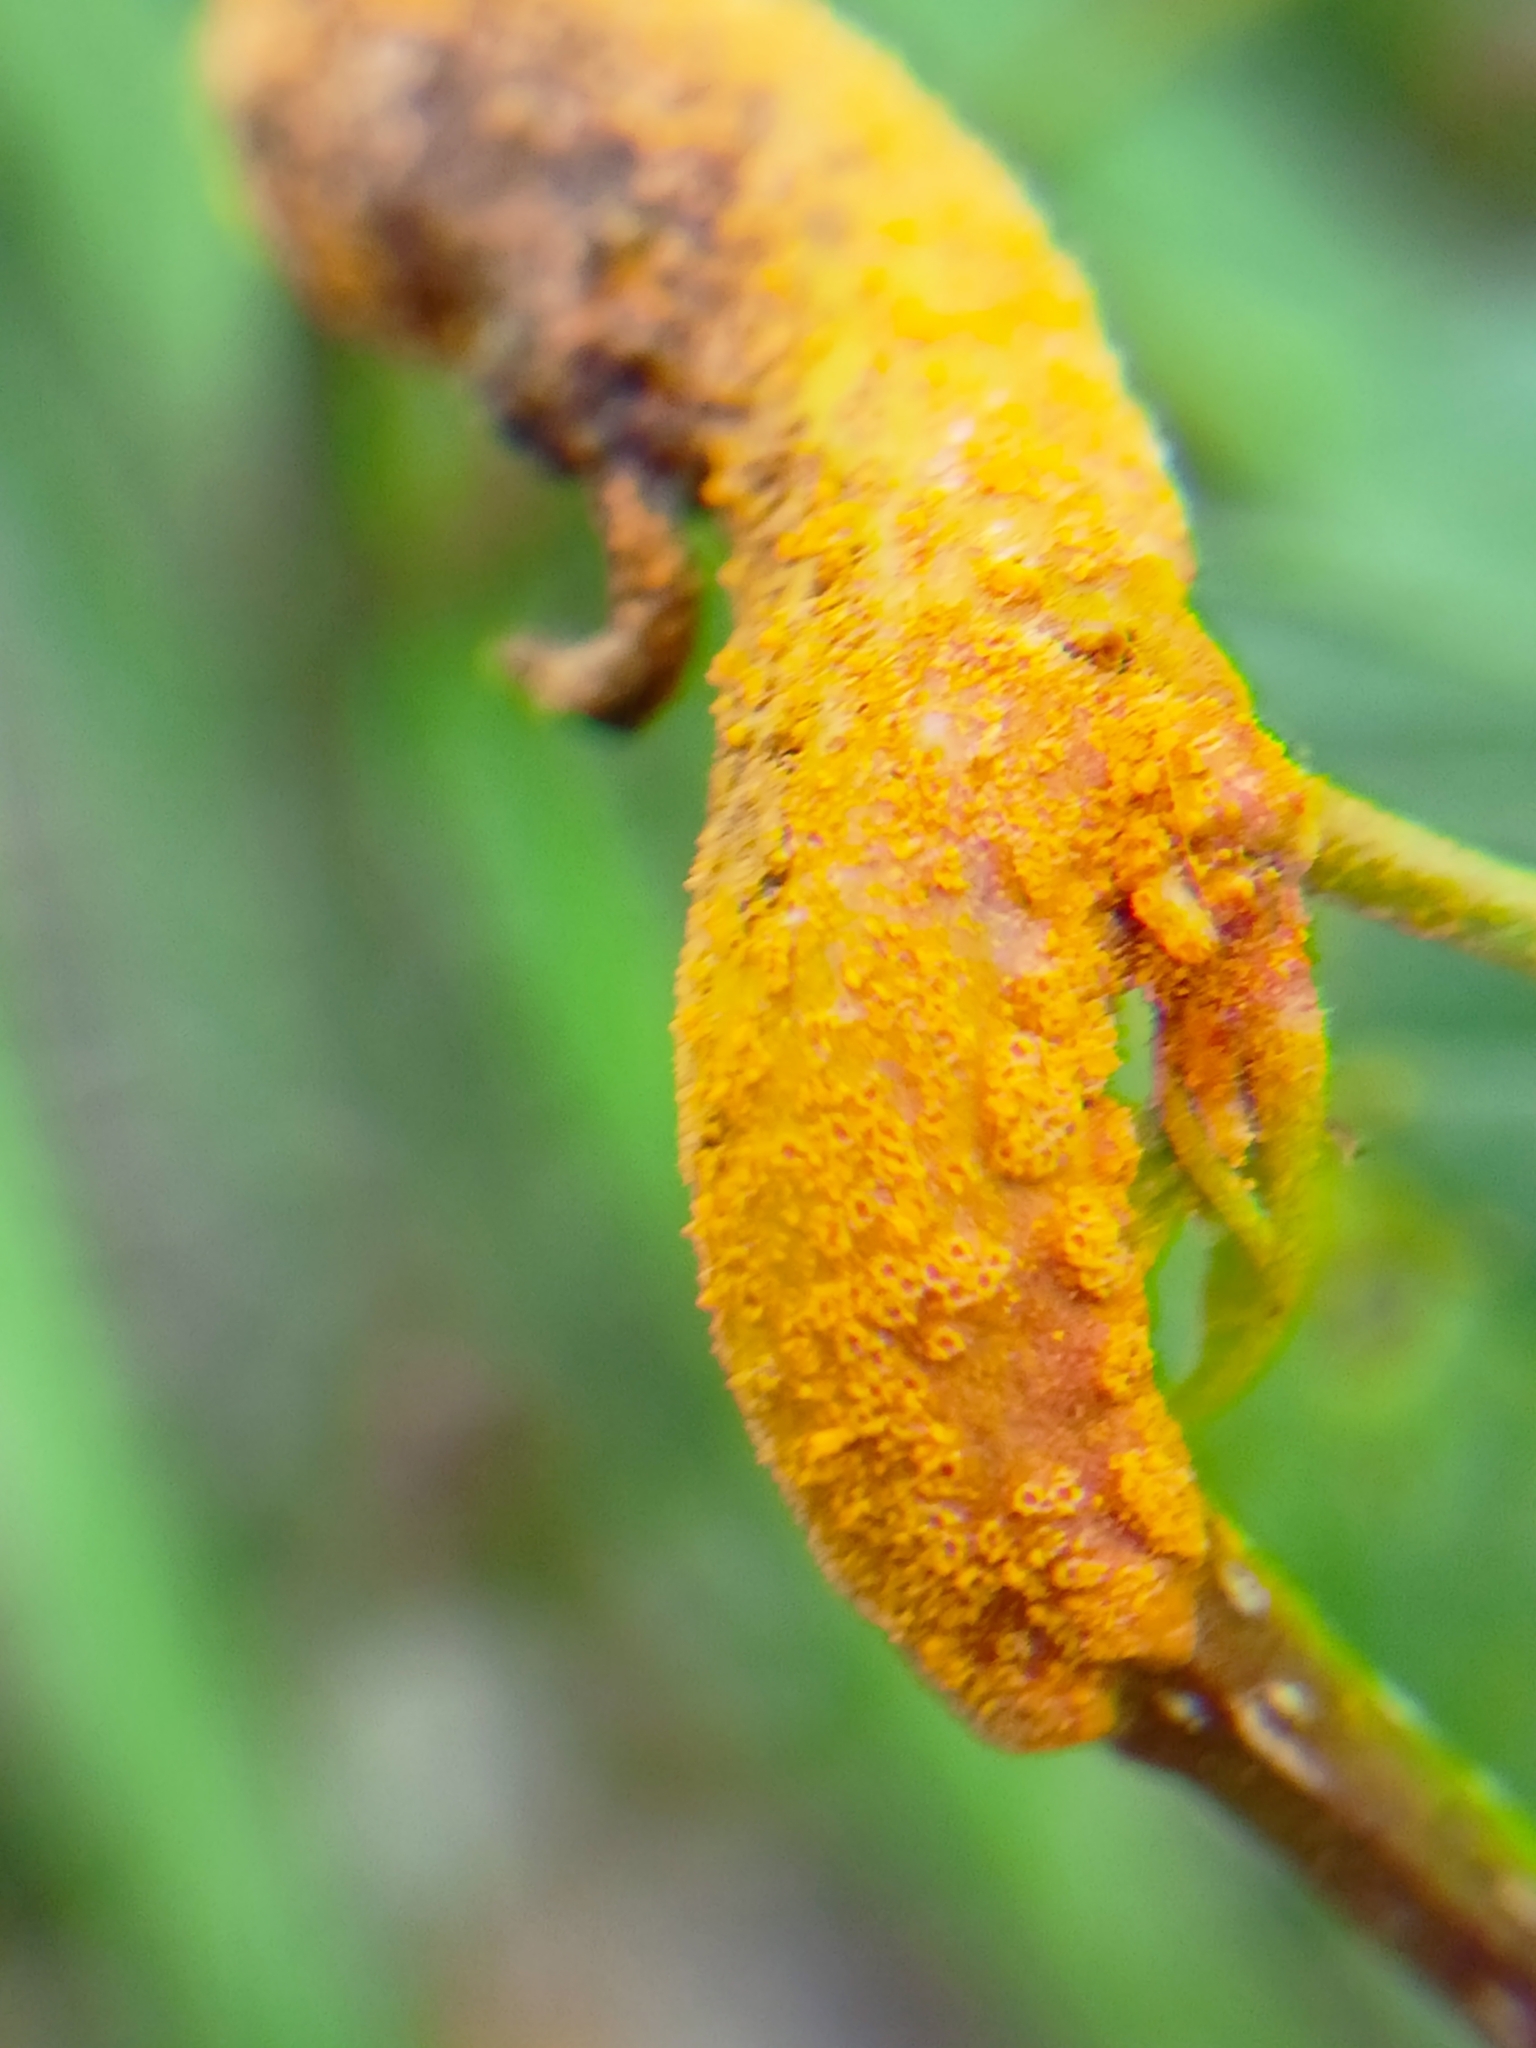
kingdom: Fungi
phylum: Basidiomycota
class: Pucciniomycetes
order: Pucciniales
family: Pucciniaceae
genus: Puccinia
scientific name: Puccinia coronata
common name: Crown rust
